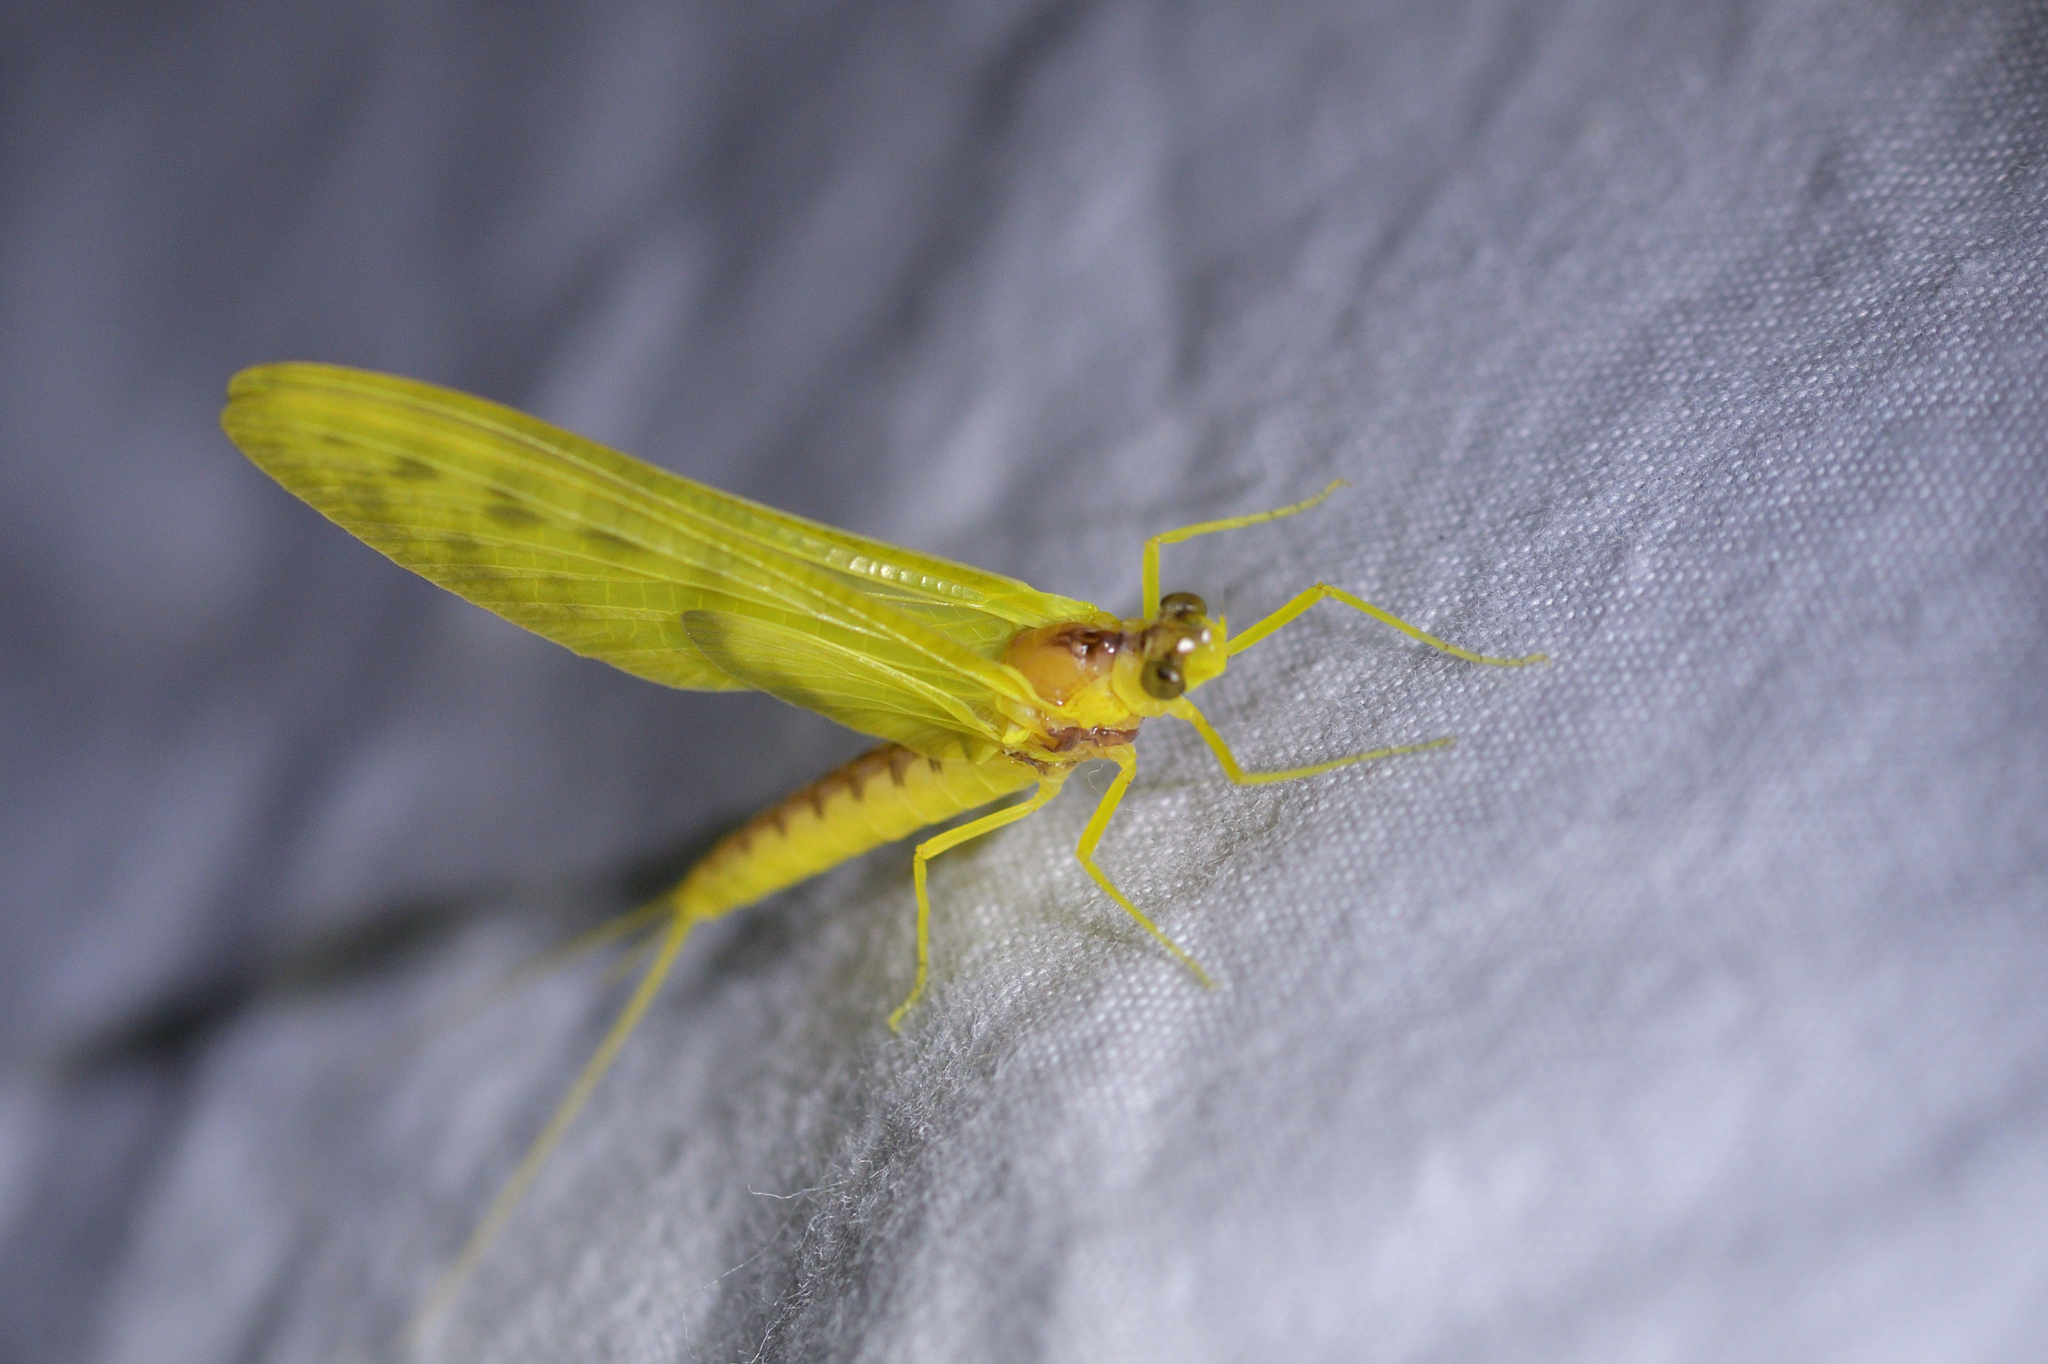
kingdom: Animalia
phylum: Arthropoda
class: Insecta
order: Ephemeroptera
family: Ameletopsidae
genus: Ameletopsis
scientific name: Ameletopsis perscitus
